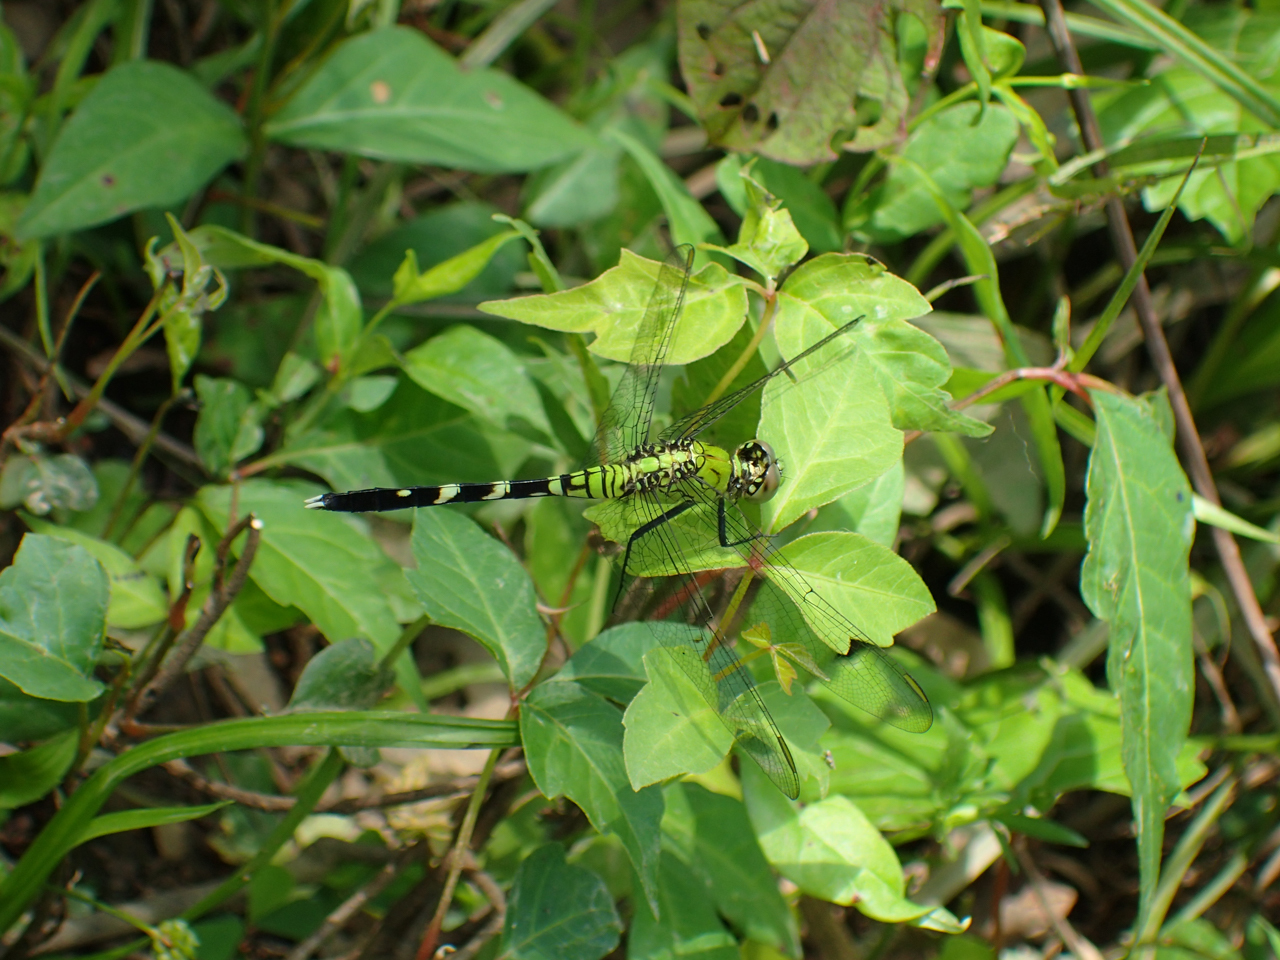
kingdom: Animalia
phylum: Arthropoda
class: Insecta
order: Odonata
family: Libellulidae
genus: Erythemis
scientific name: Erythemis simplicicollis
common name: Eastern pondhawk
